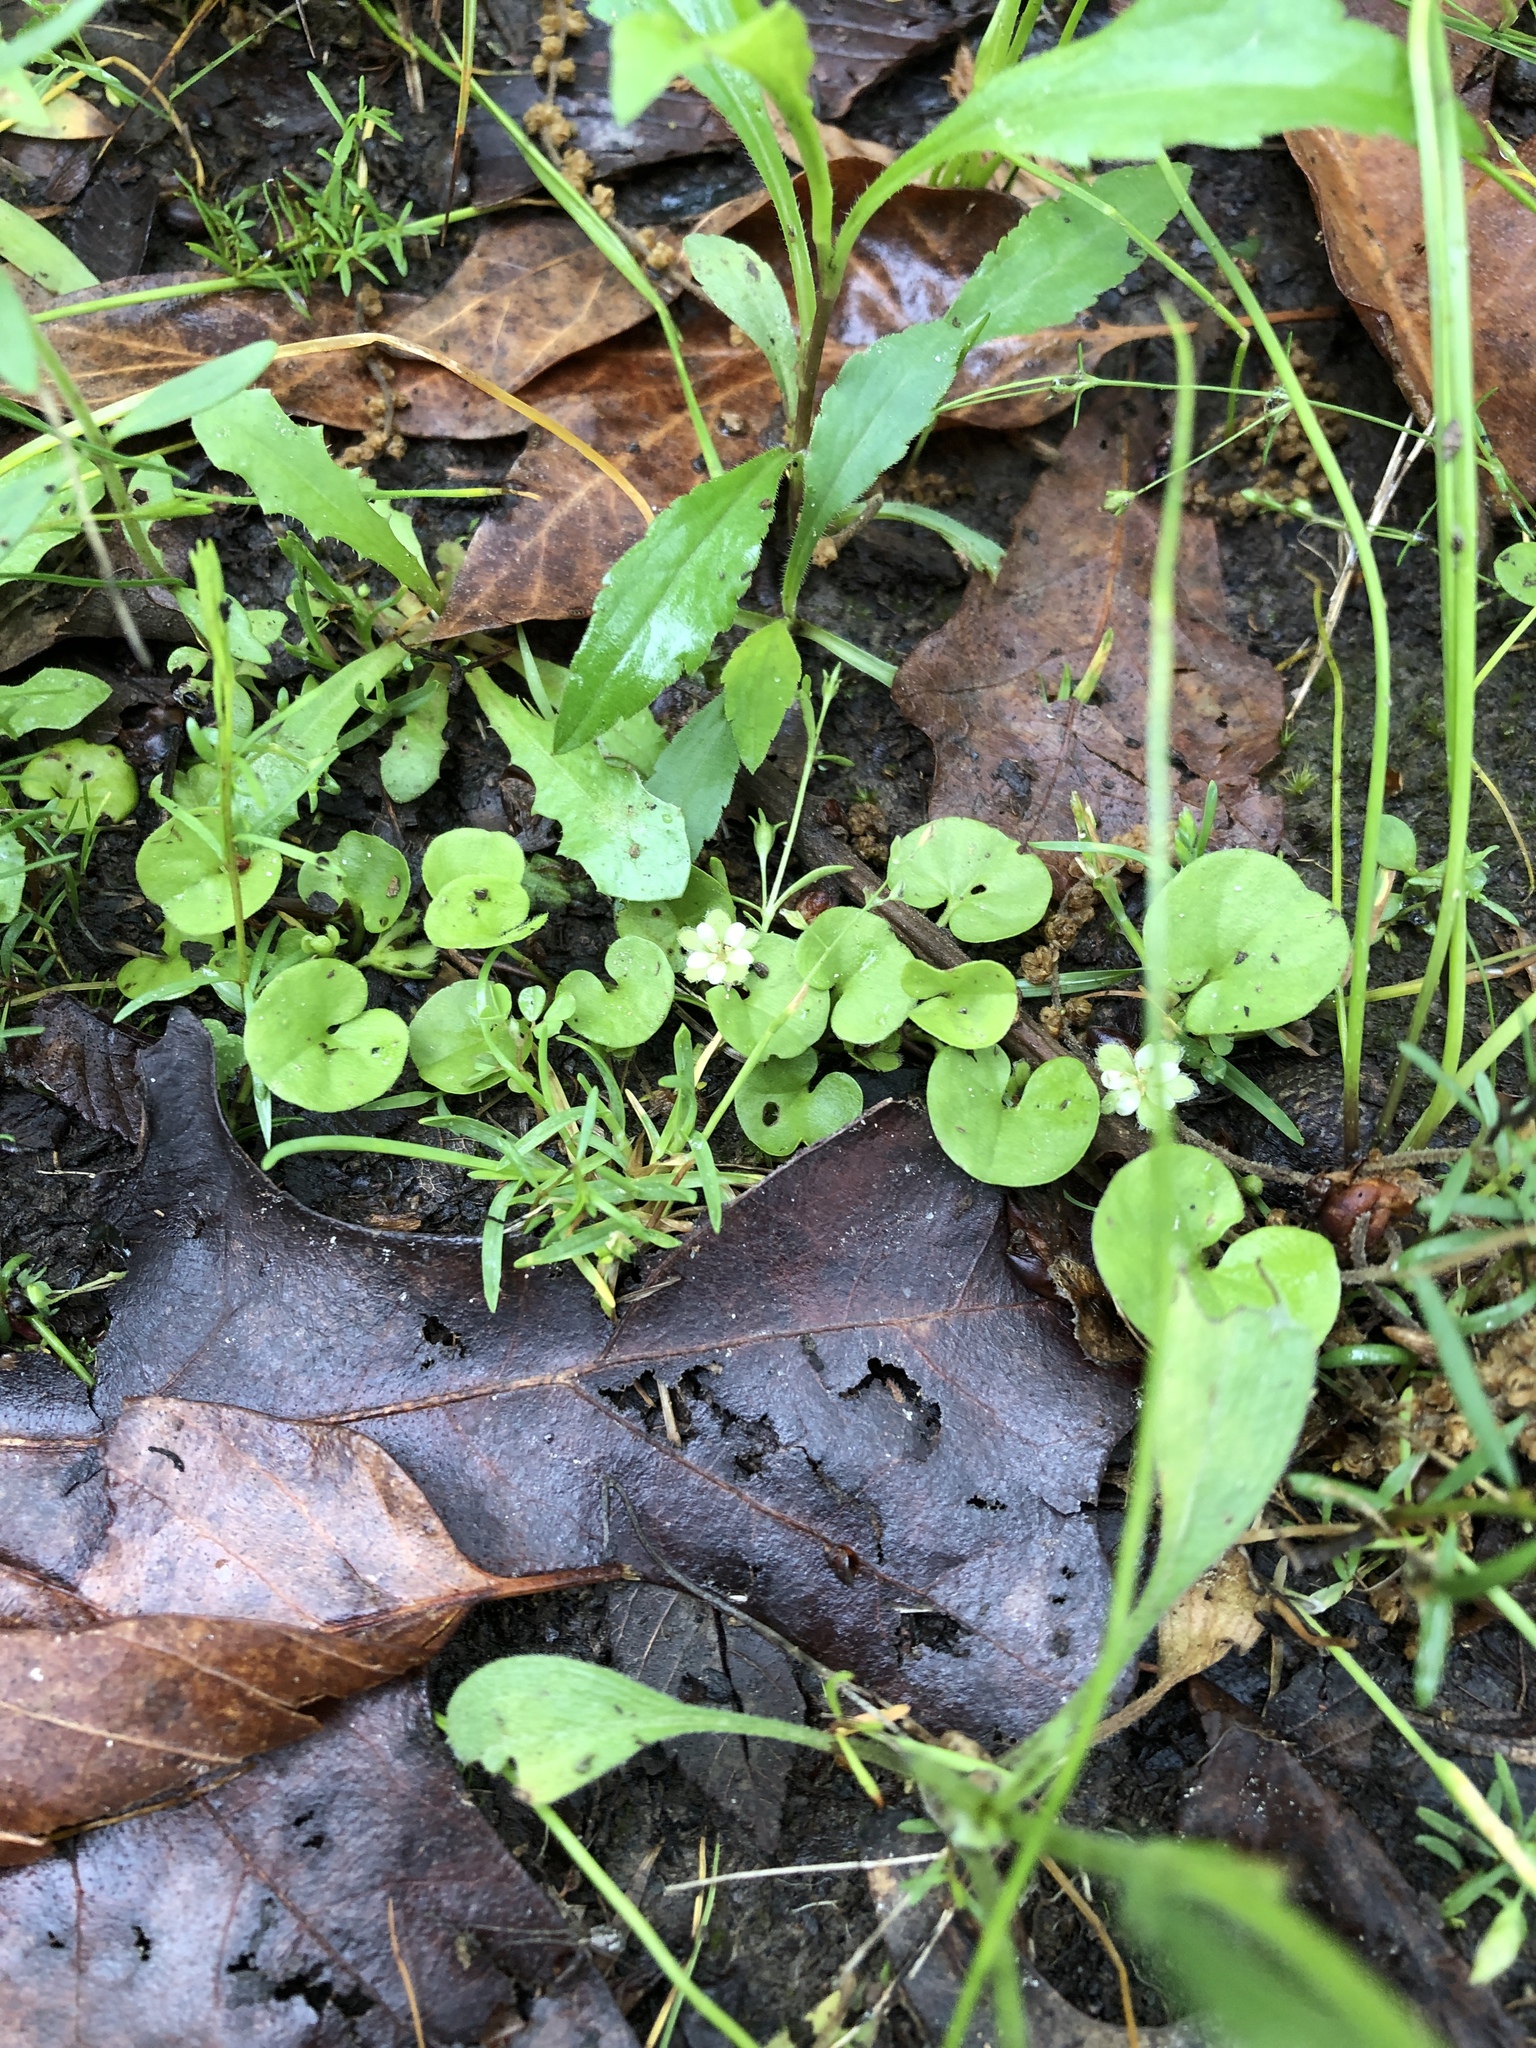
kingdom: Plantae
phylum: Tracheophyta
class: Magnoliopsida
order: Solanales
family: Convolvulaceae
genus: Dichondra
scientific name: Dichondra carolinensis
